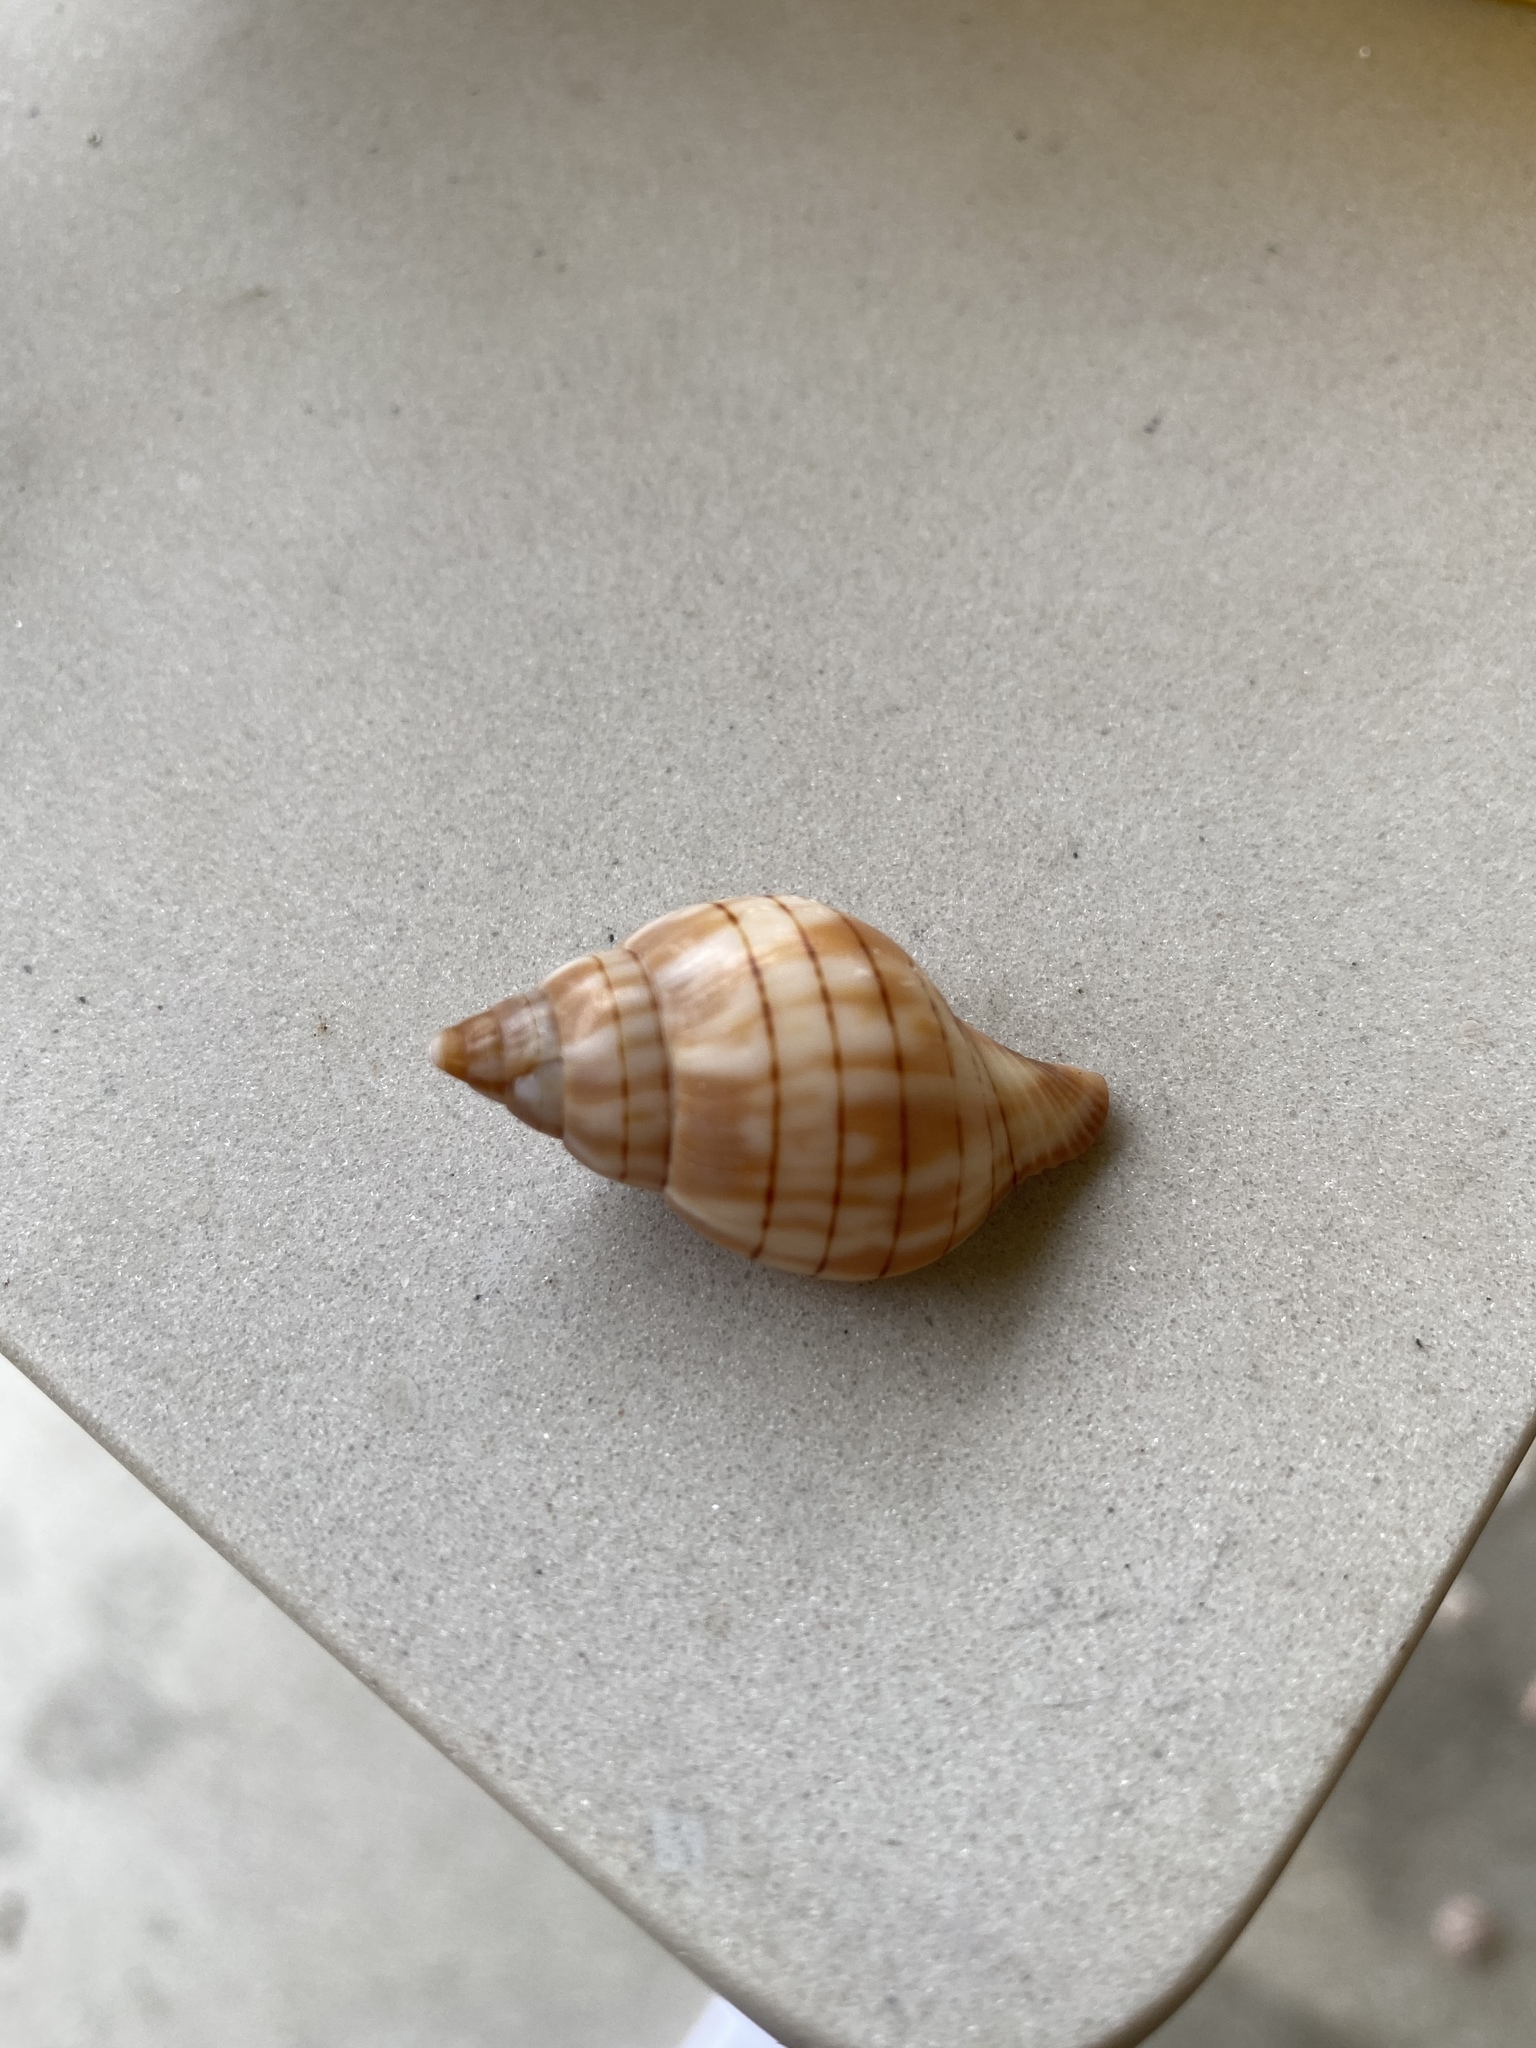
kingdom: Animalia
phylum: Mollusca
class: Gastropoda
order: Neogastropoda
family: Fasciolariidae
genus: Cinctura
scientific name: Cinctura hunteria
